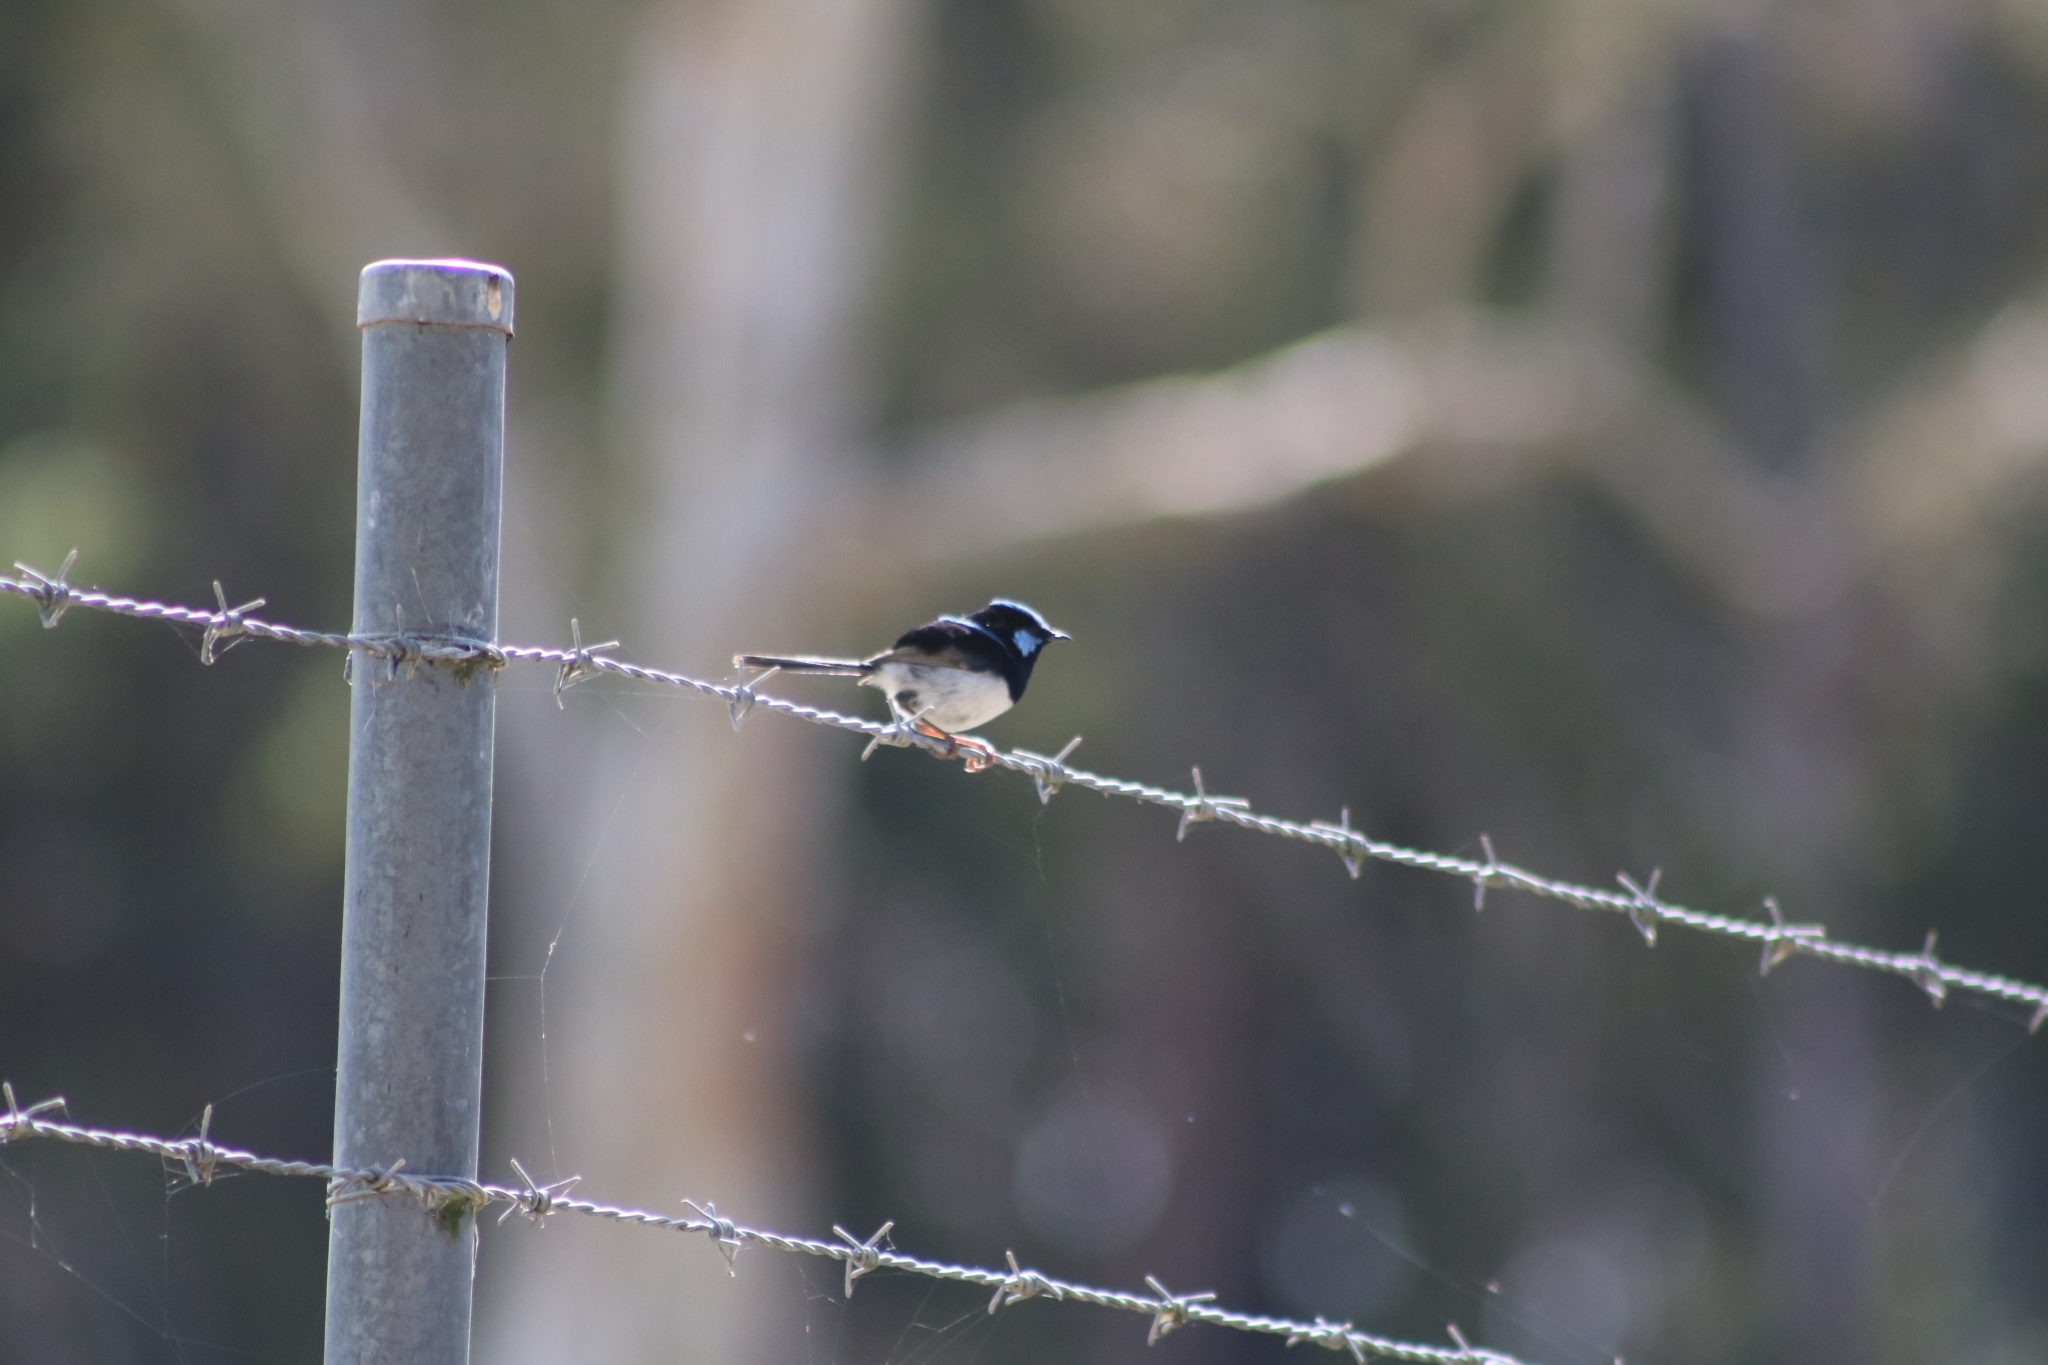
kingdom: Animalia
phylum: Chordata
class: Aves
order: Passeriformes
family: Maluridae
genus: Malurus
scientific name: Malurus cyaneus
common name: Superb fairywren
